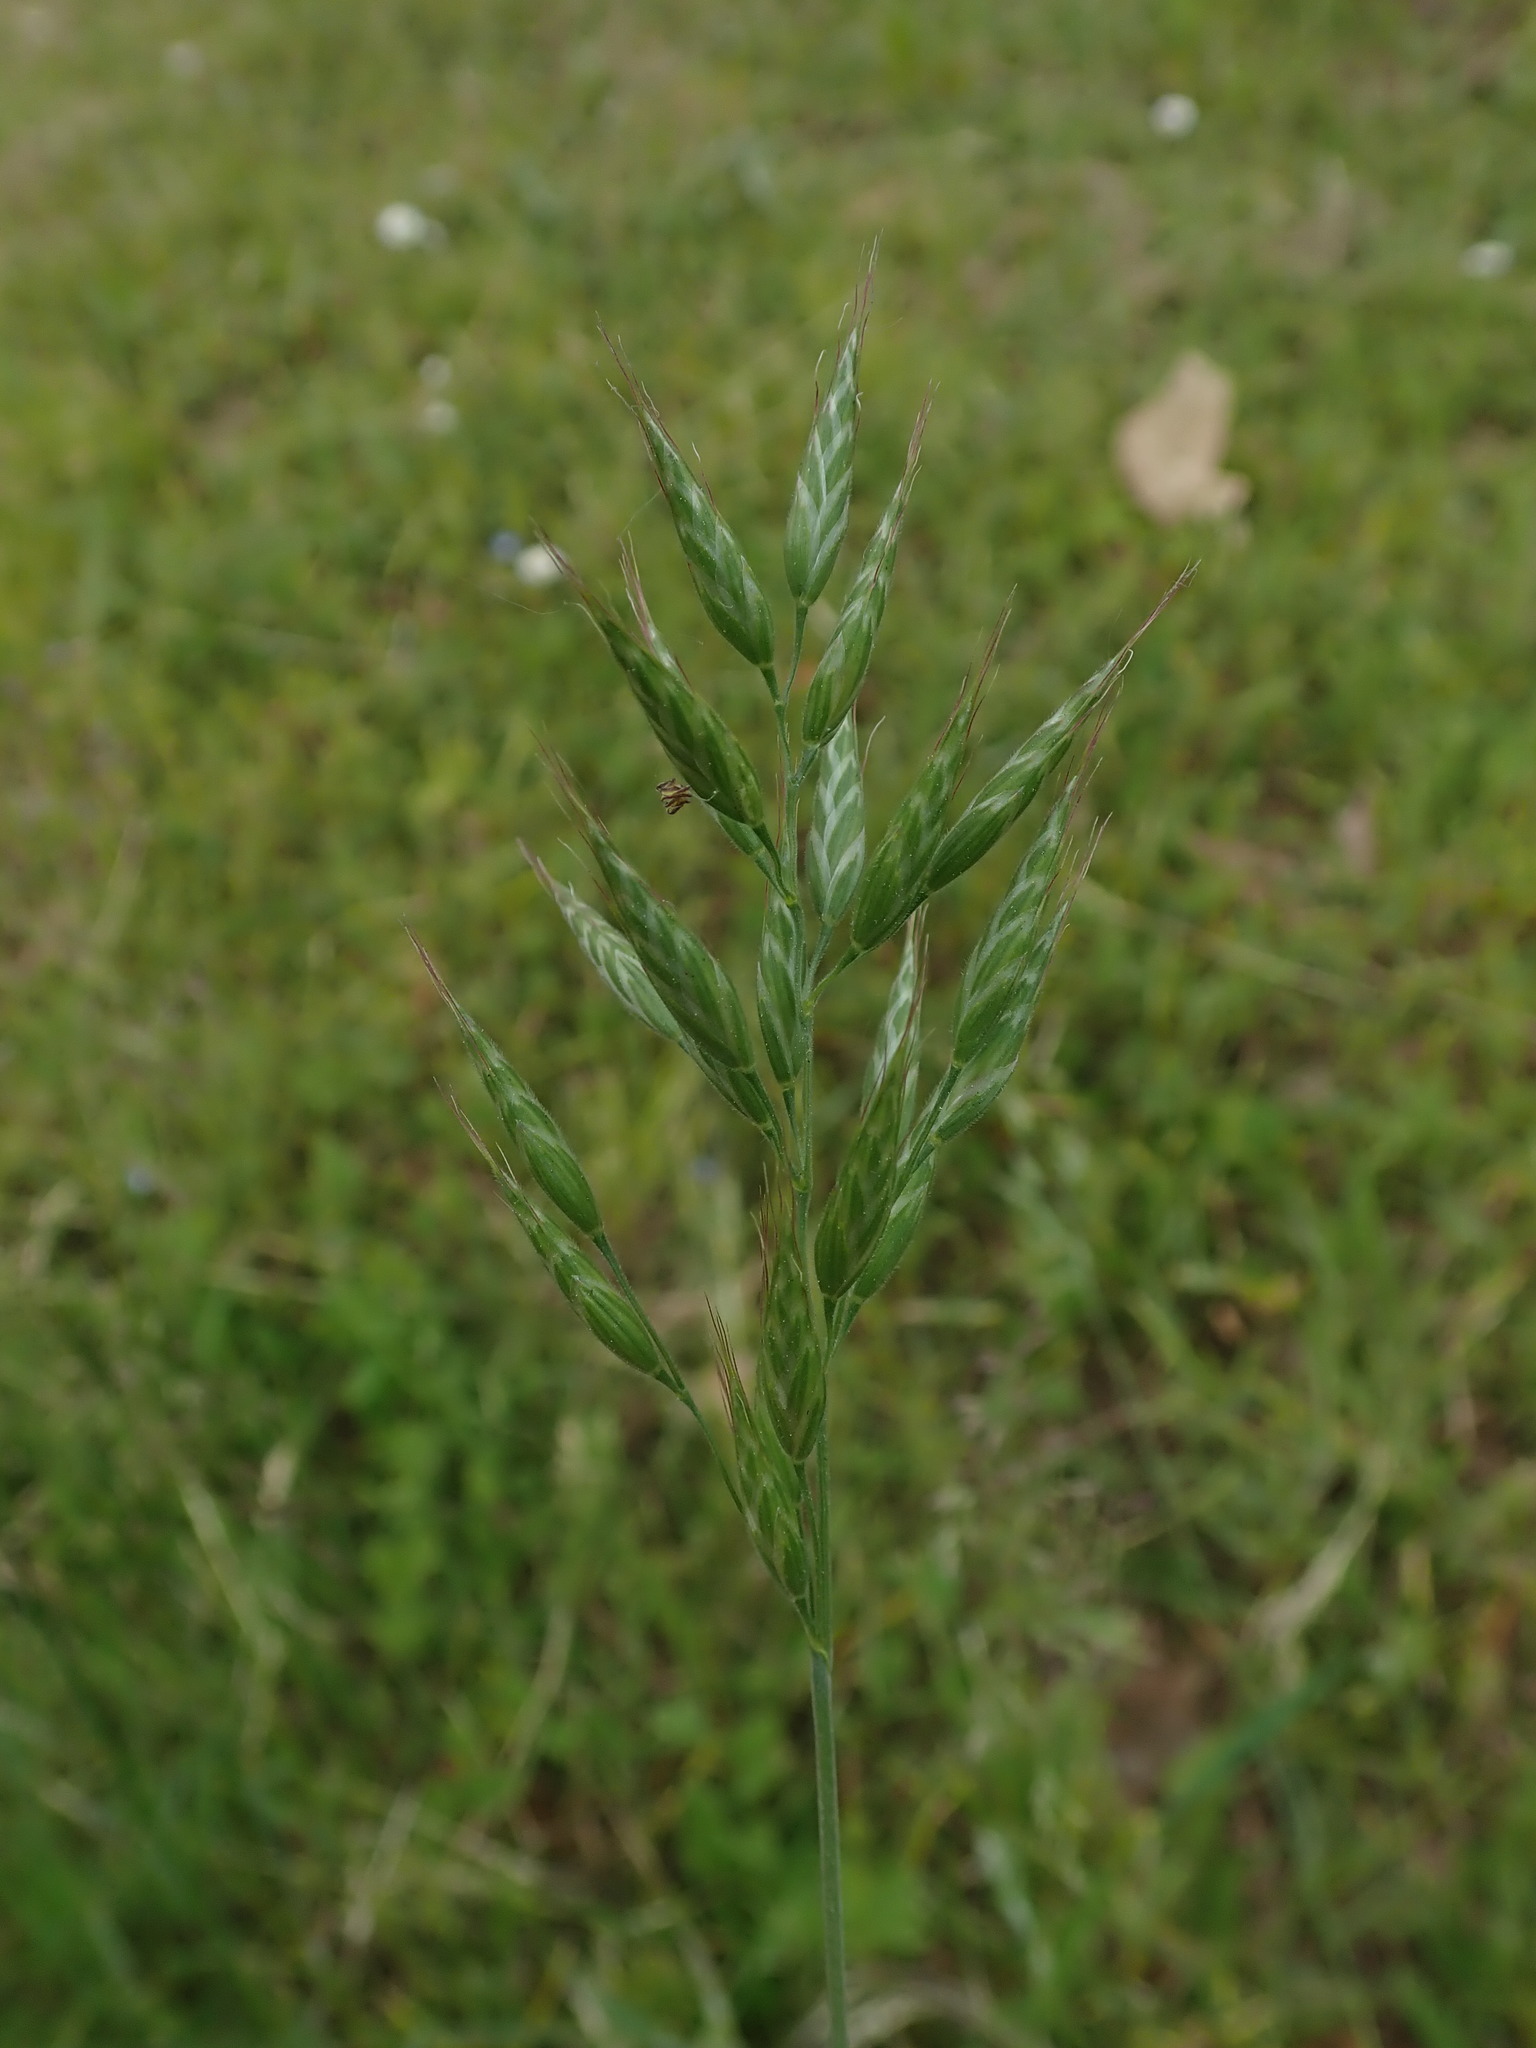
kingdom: Plantae
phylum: Tracheophyta
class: Liliopsida
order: Poales
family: Poaceae
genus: Bromus
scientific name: Bromus hordeaceus
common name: Soft brome
